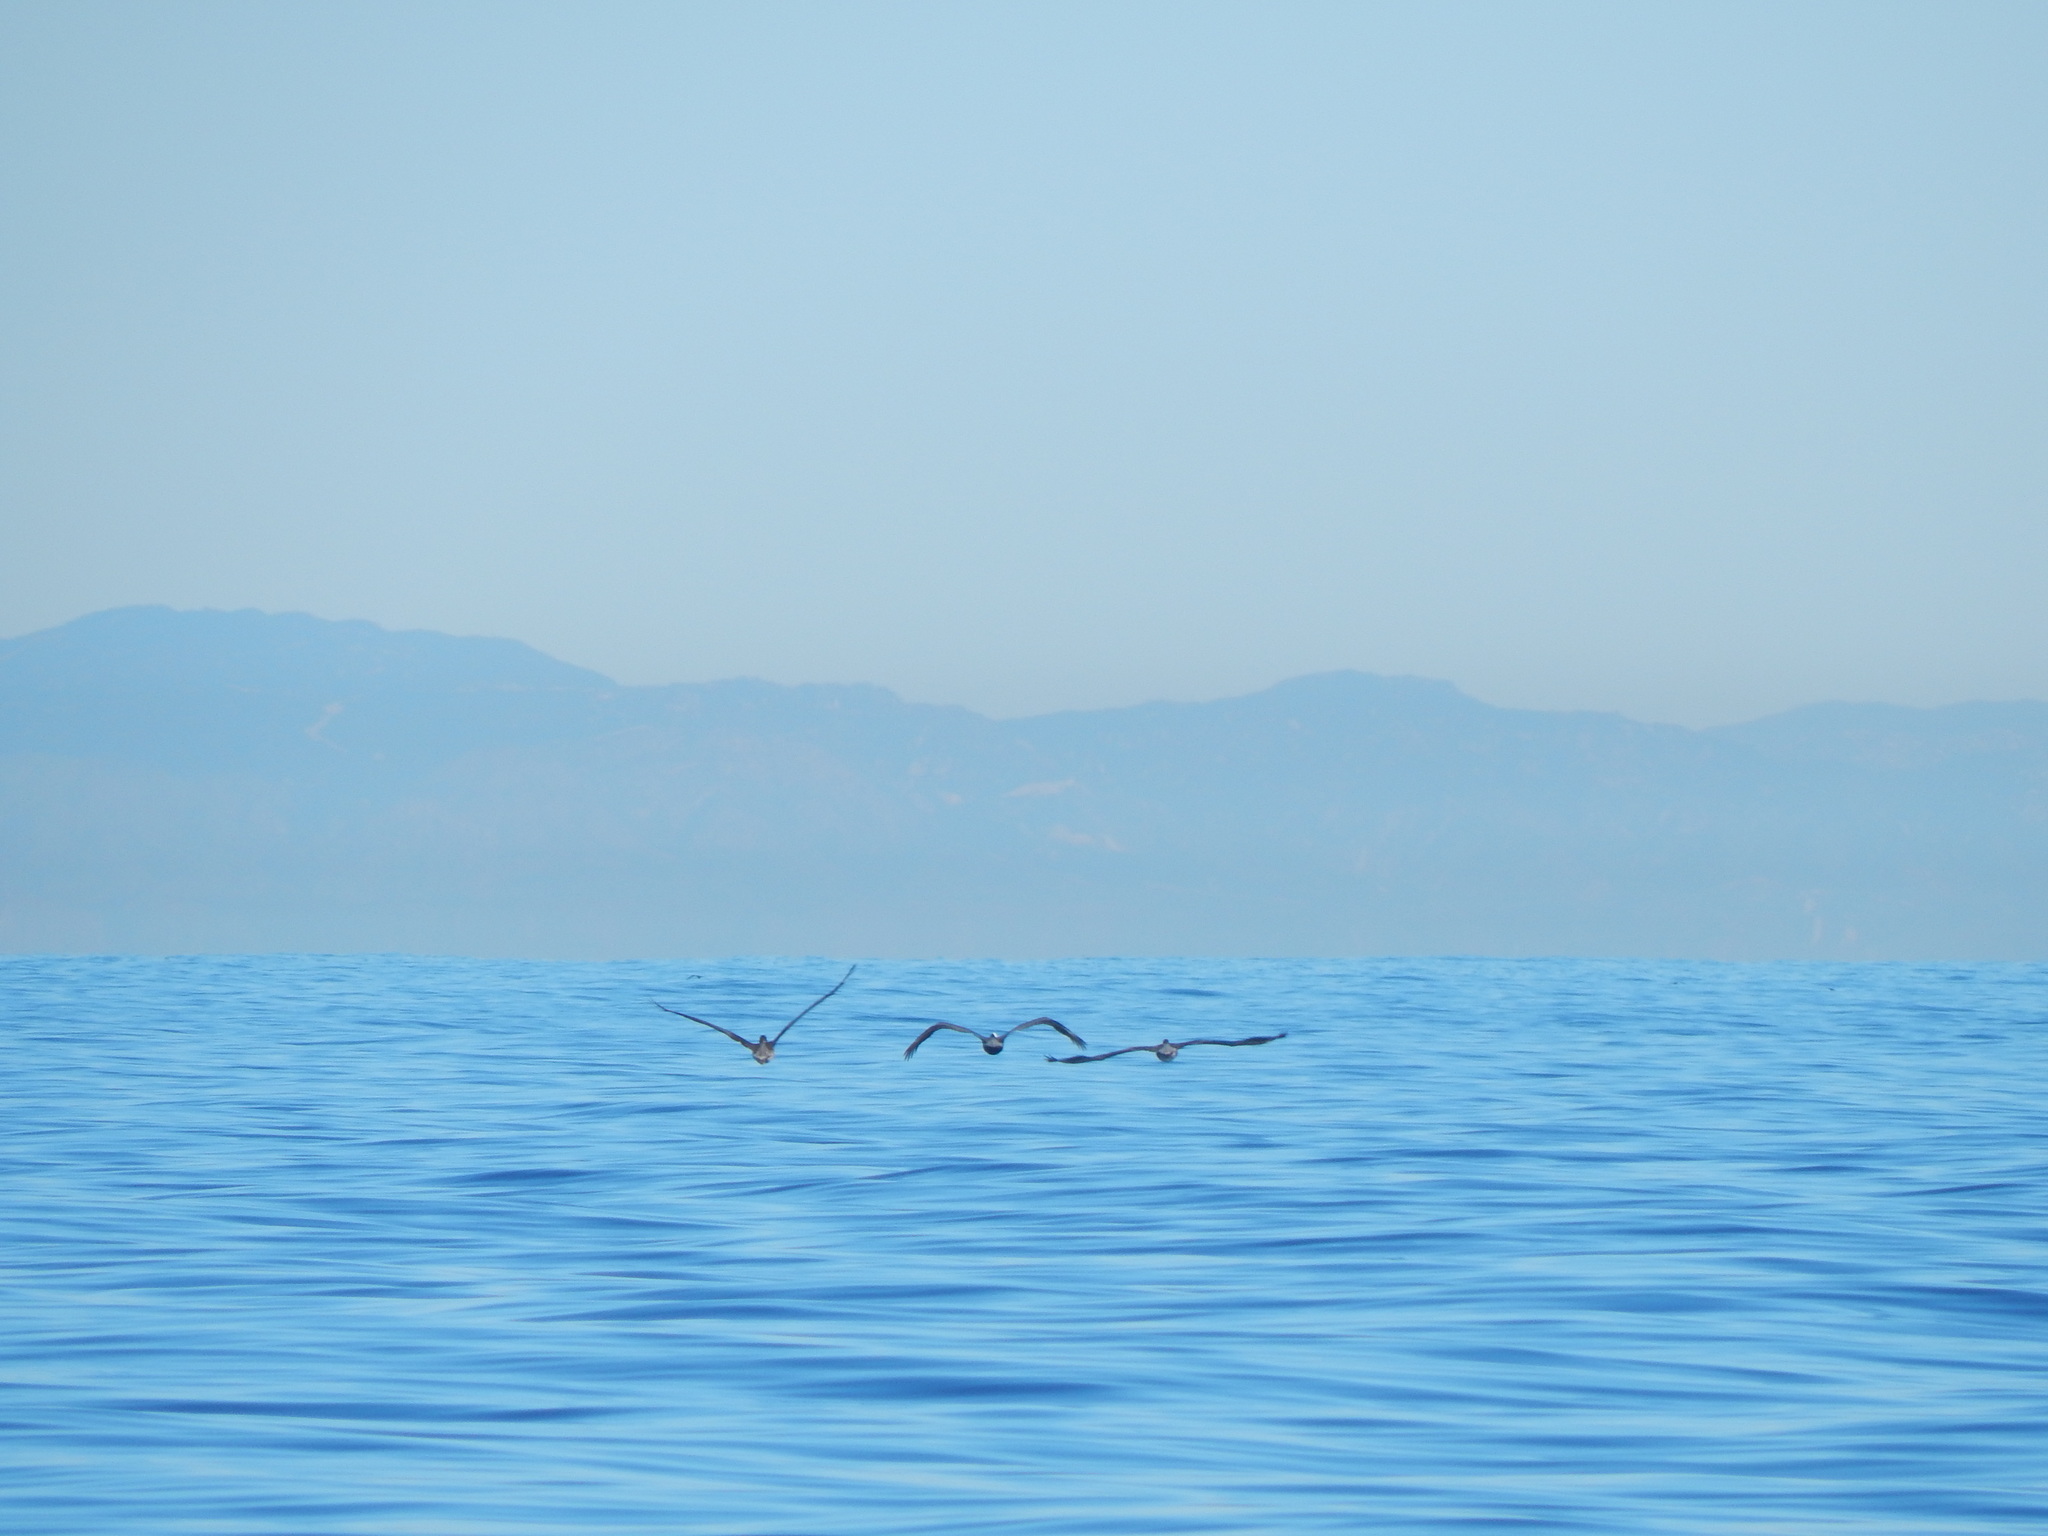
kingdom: Animalia
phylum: Chordata
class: Aves
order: Pelecaniformes
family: Pelecanidae
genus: Pelecanus
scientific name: Pelecanus occidentalis
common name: Brown pelican
